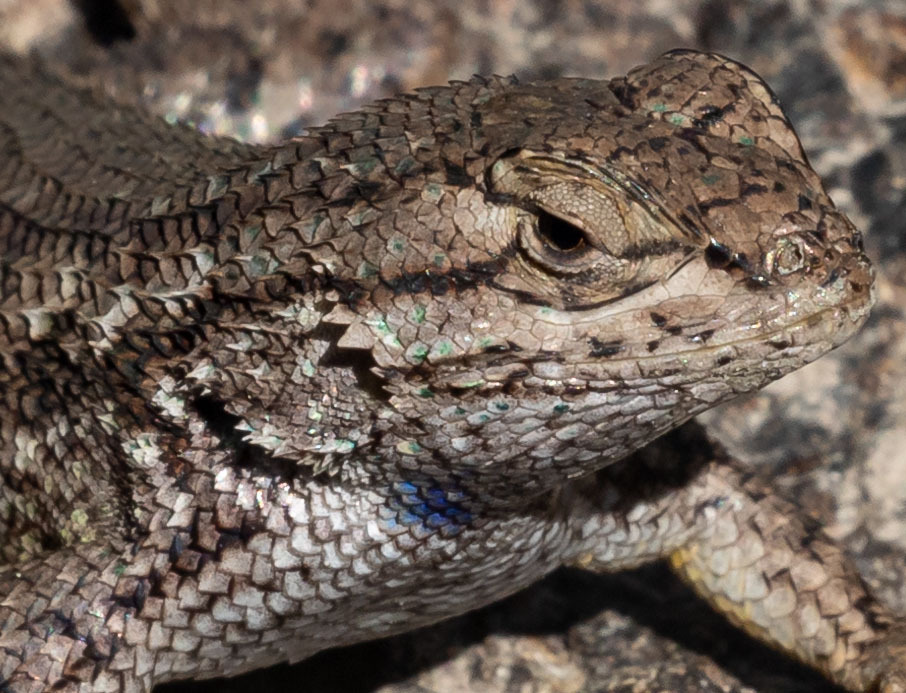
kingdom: Animalia
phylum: Chordata
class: Squamata
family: Phrynosomatidae
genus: Sceloporus
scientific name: Sceloporus occidentalis
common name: Western fence lizard
